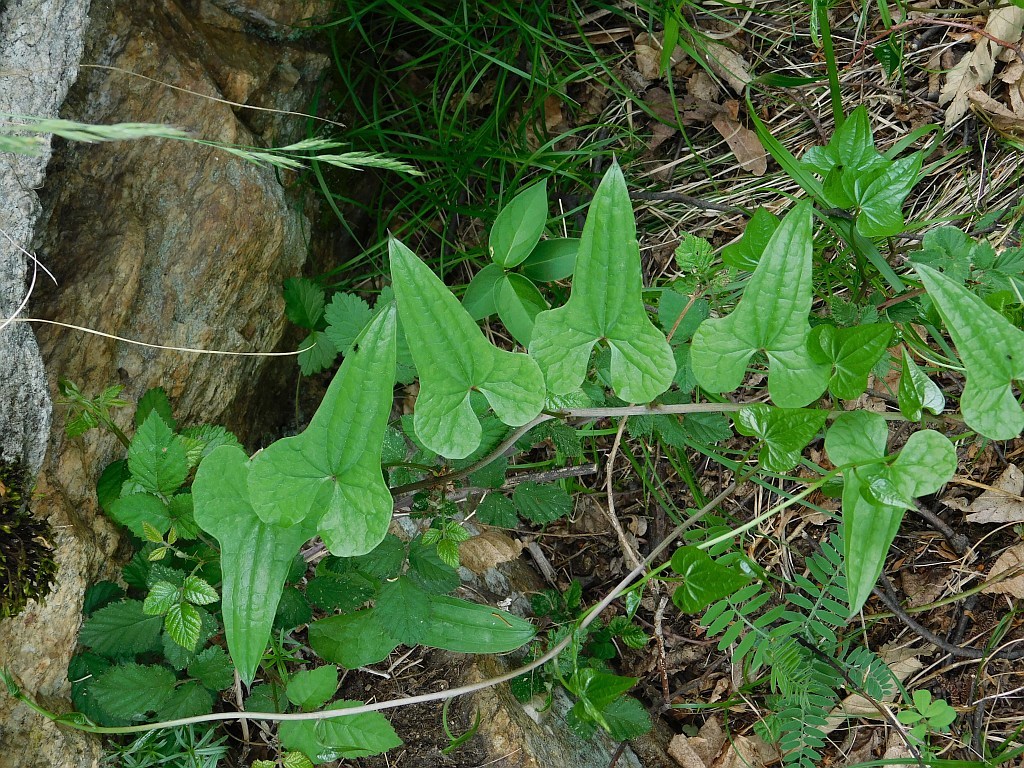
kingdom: Plantae
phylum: Tracheophyta
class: Liliopsida
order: Dioscoreales
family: Dioscoreaceae
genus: Dioscorea
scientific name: Dioscorea communis
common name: Black-bindweed
